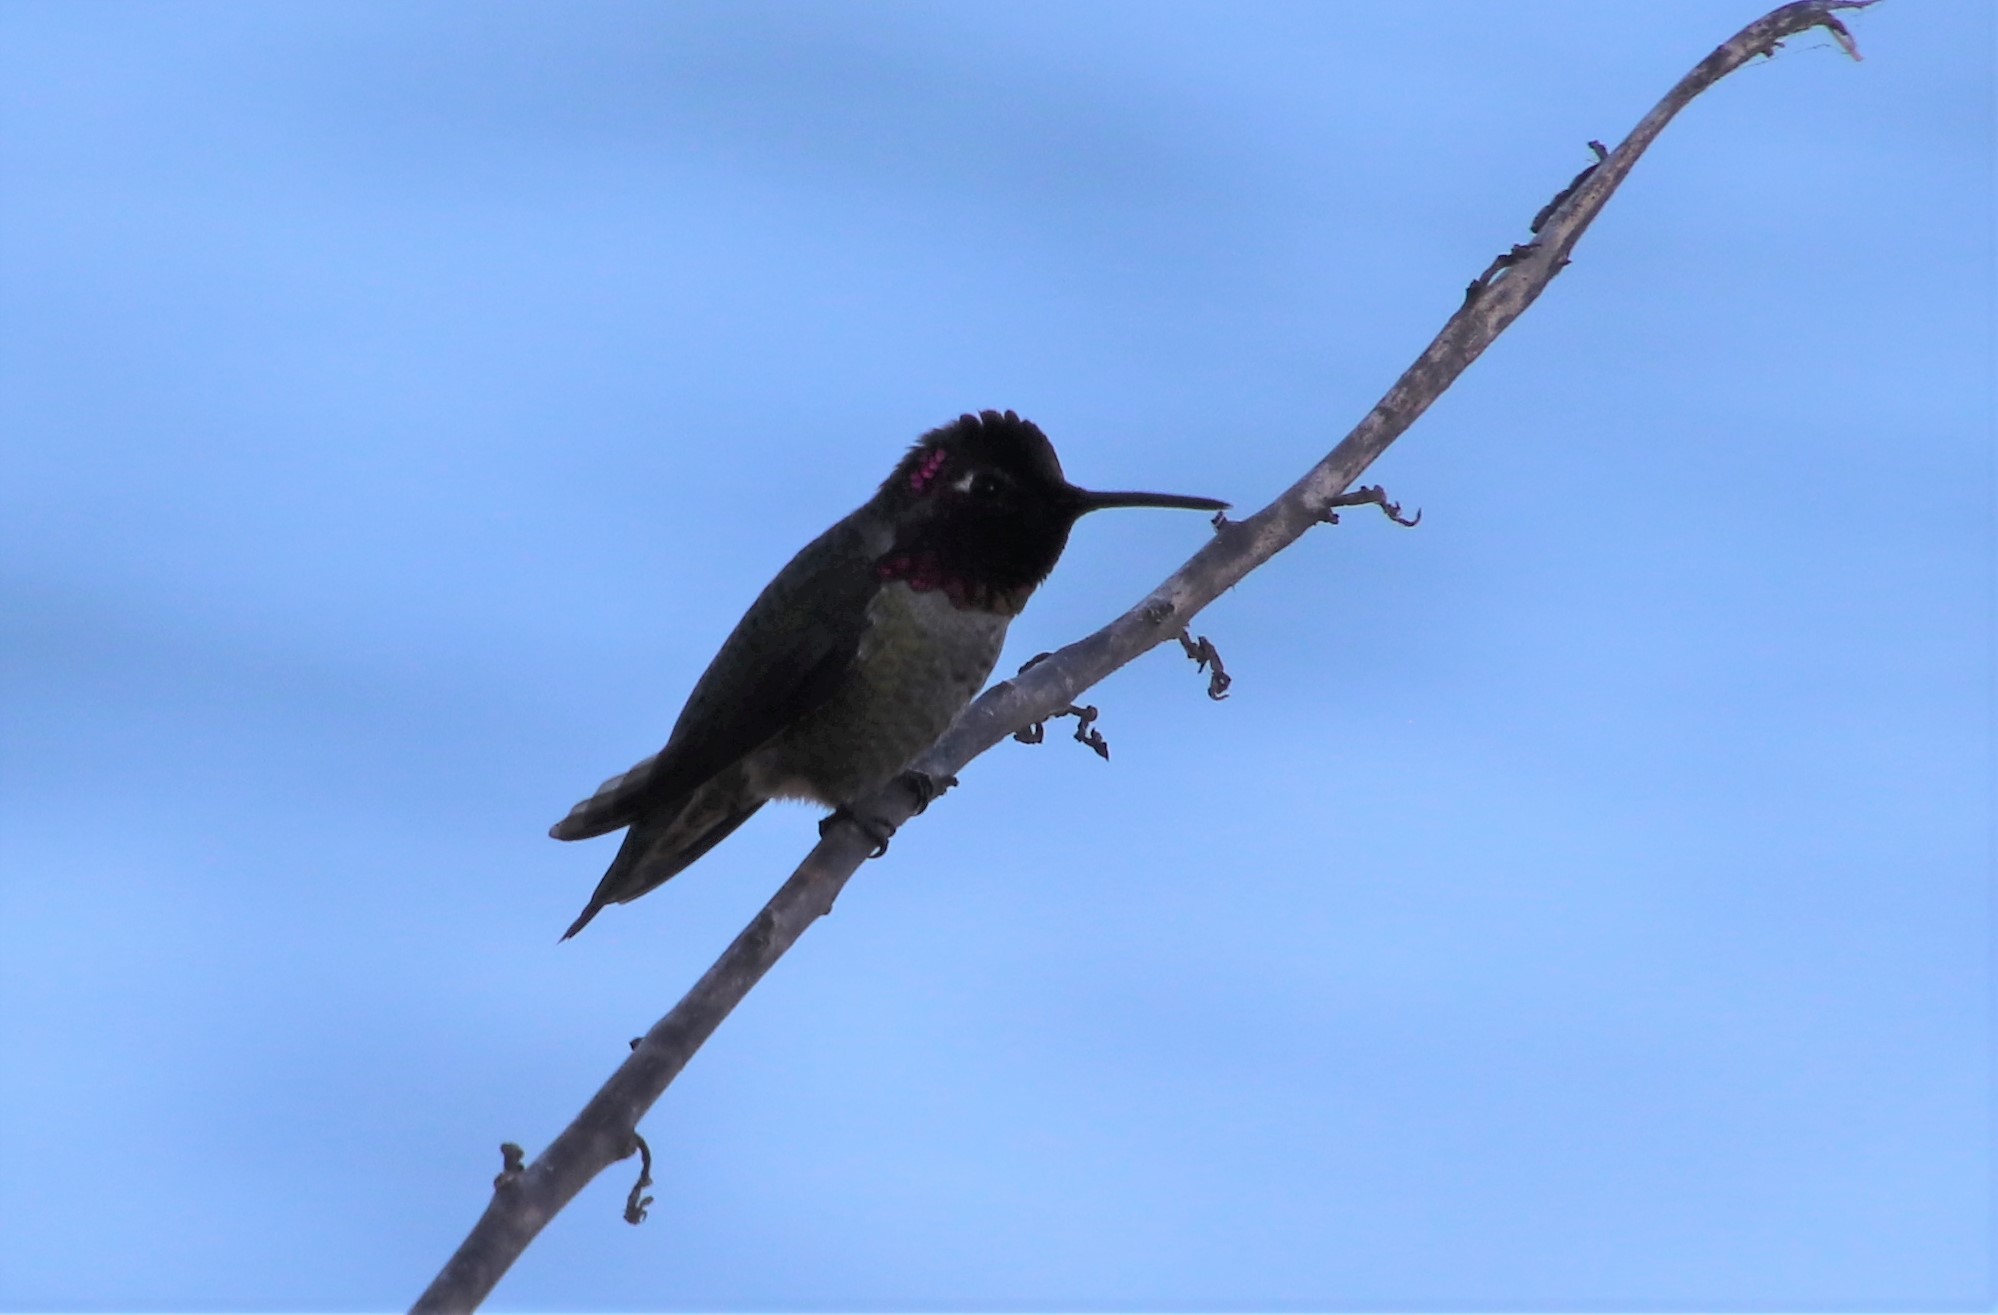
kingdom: Animalia
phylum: Chordata
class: Aves
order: Apodiformes
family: Trochilidae
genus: Calypte
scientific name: Calypte anna
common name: Anna's hummingbird
